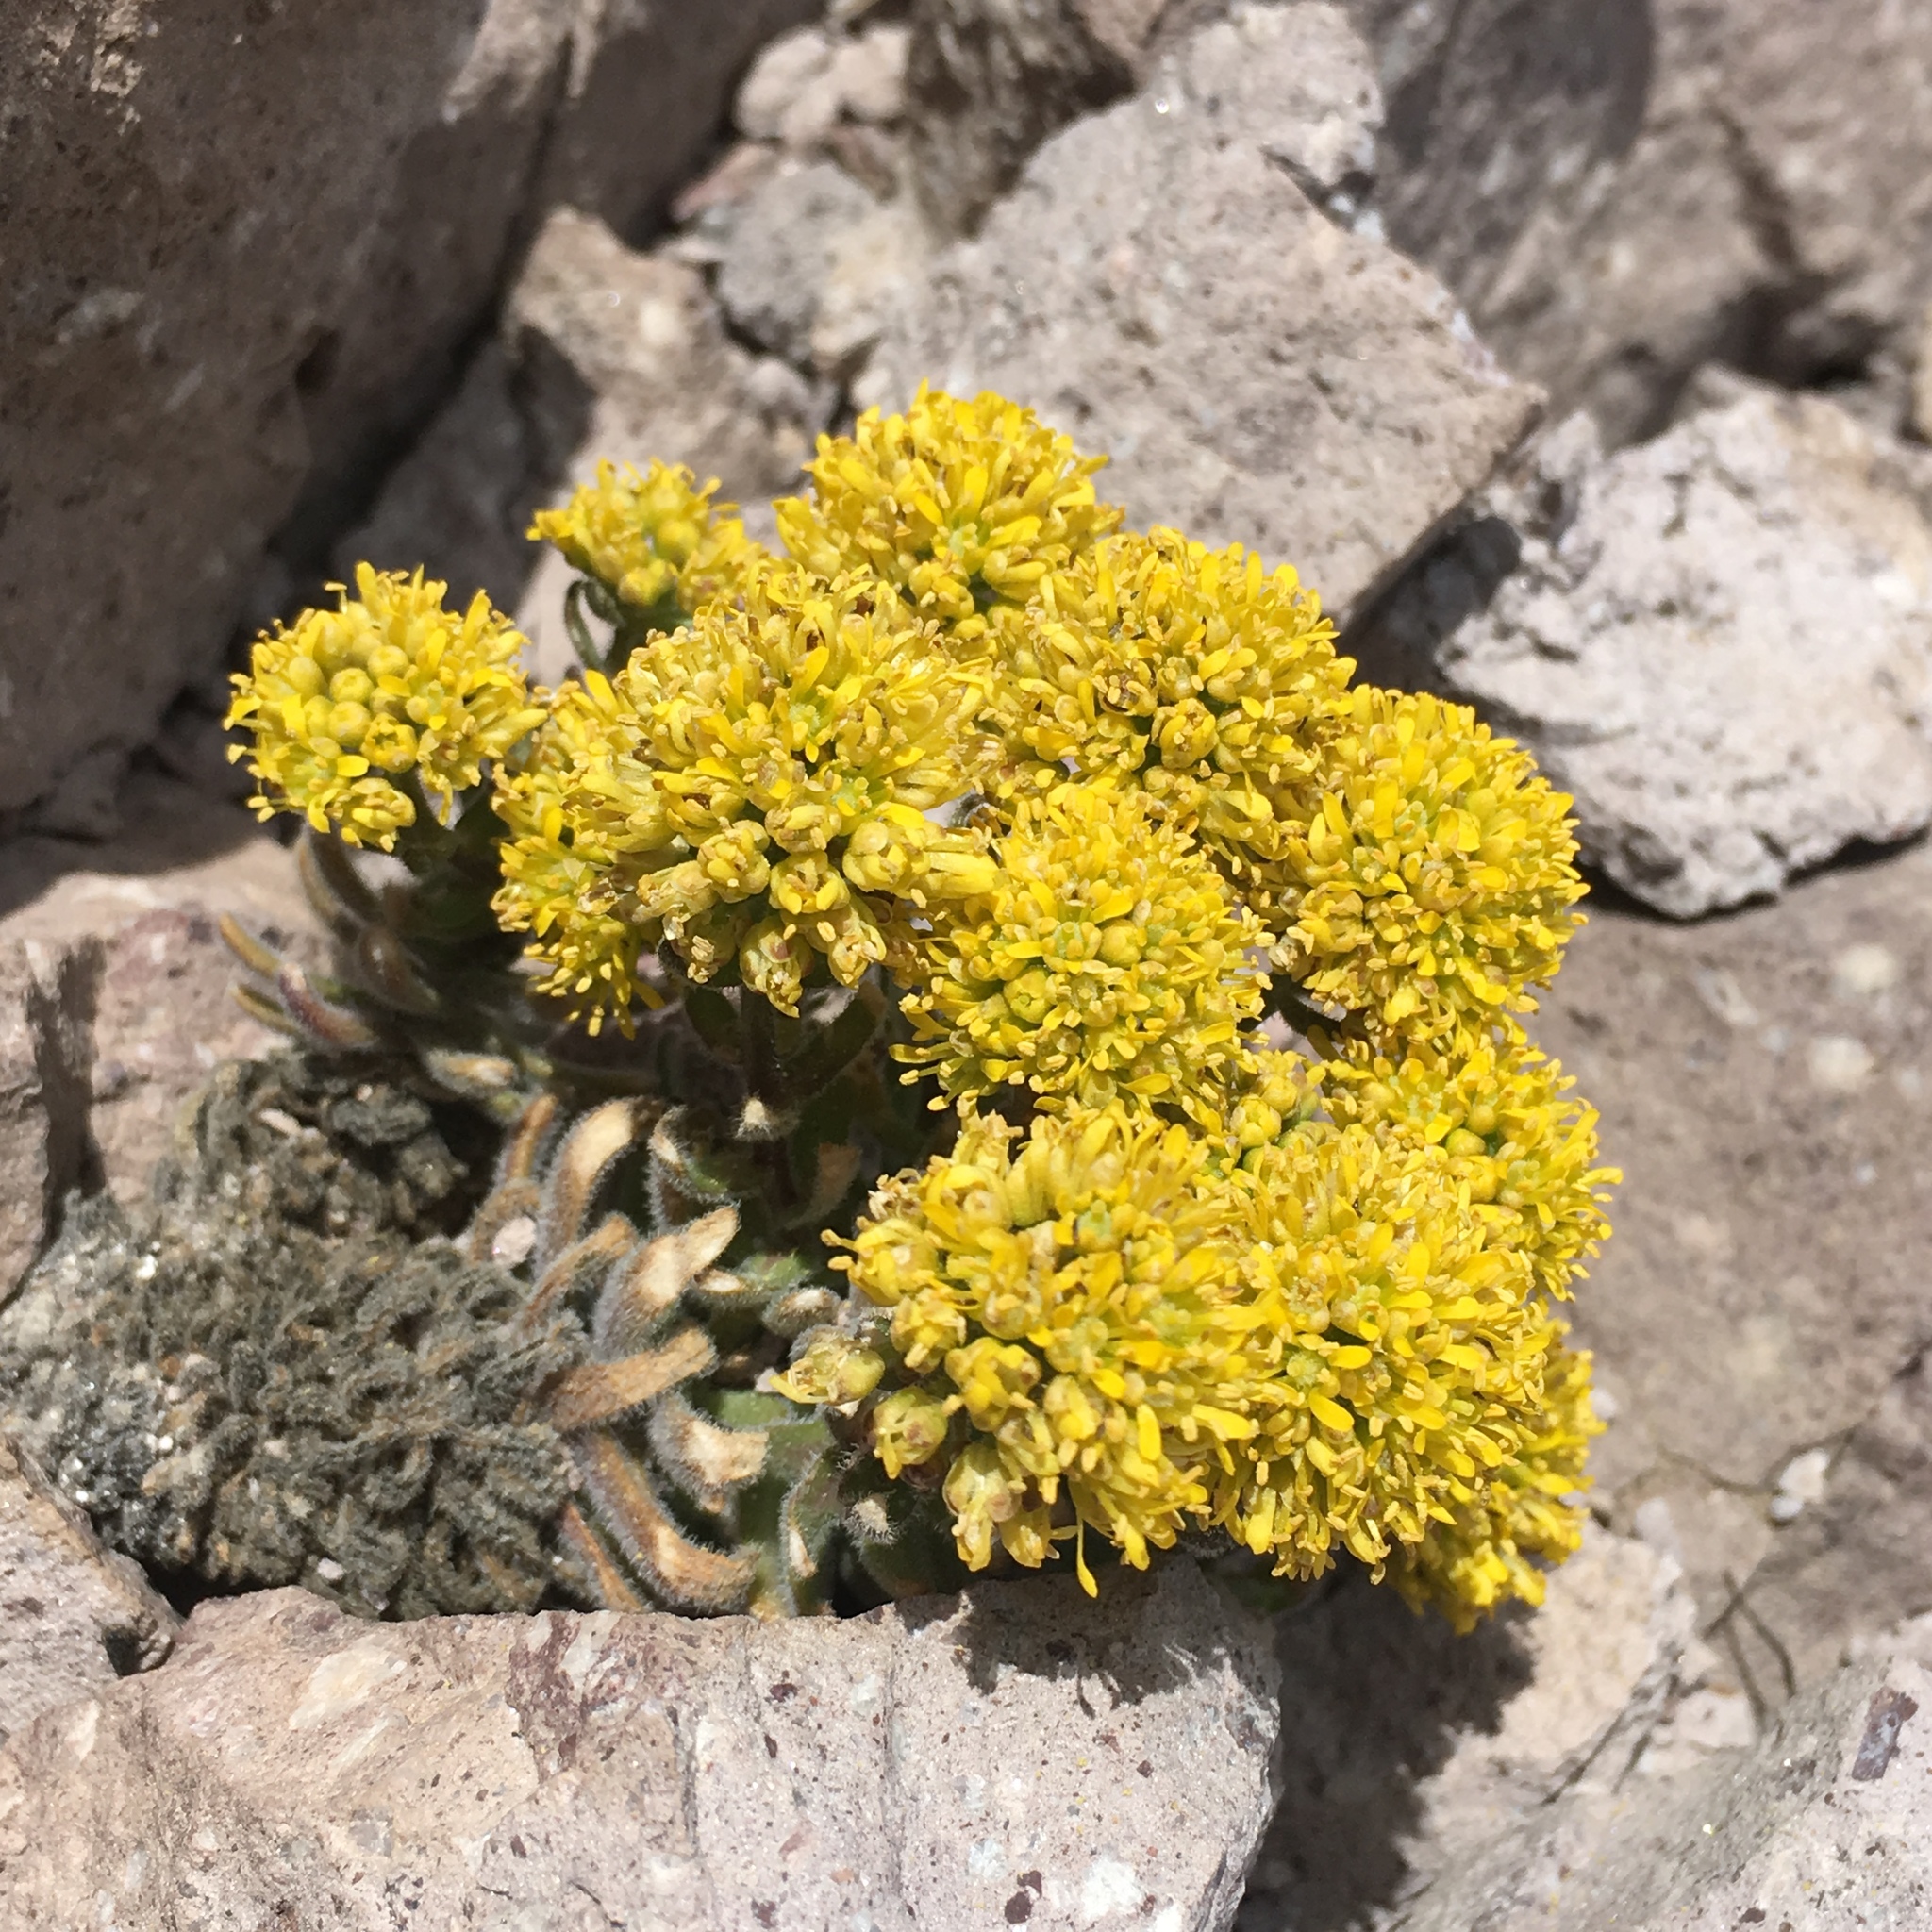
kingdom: Plantae
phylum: Tracheophyta
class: Magnoliopsida
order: Brassicales
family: Brassicaceae
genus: Draba
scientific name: Draba aureola
